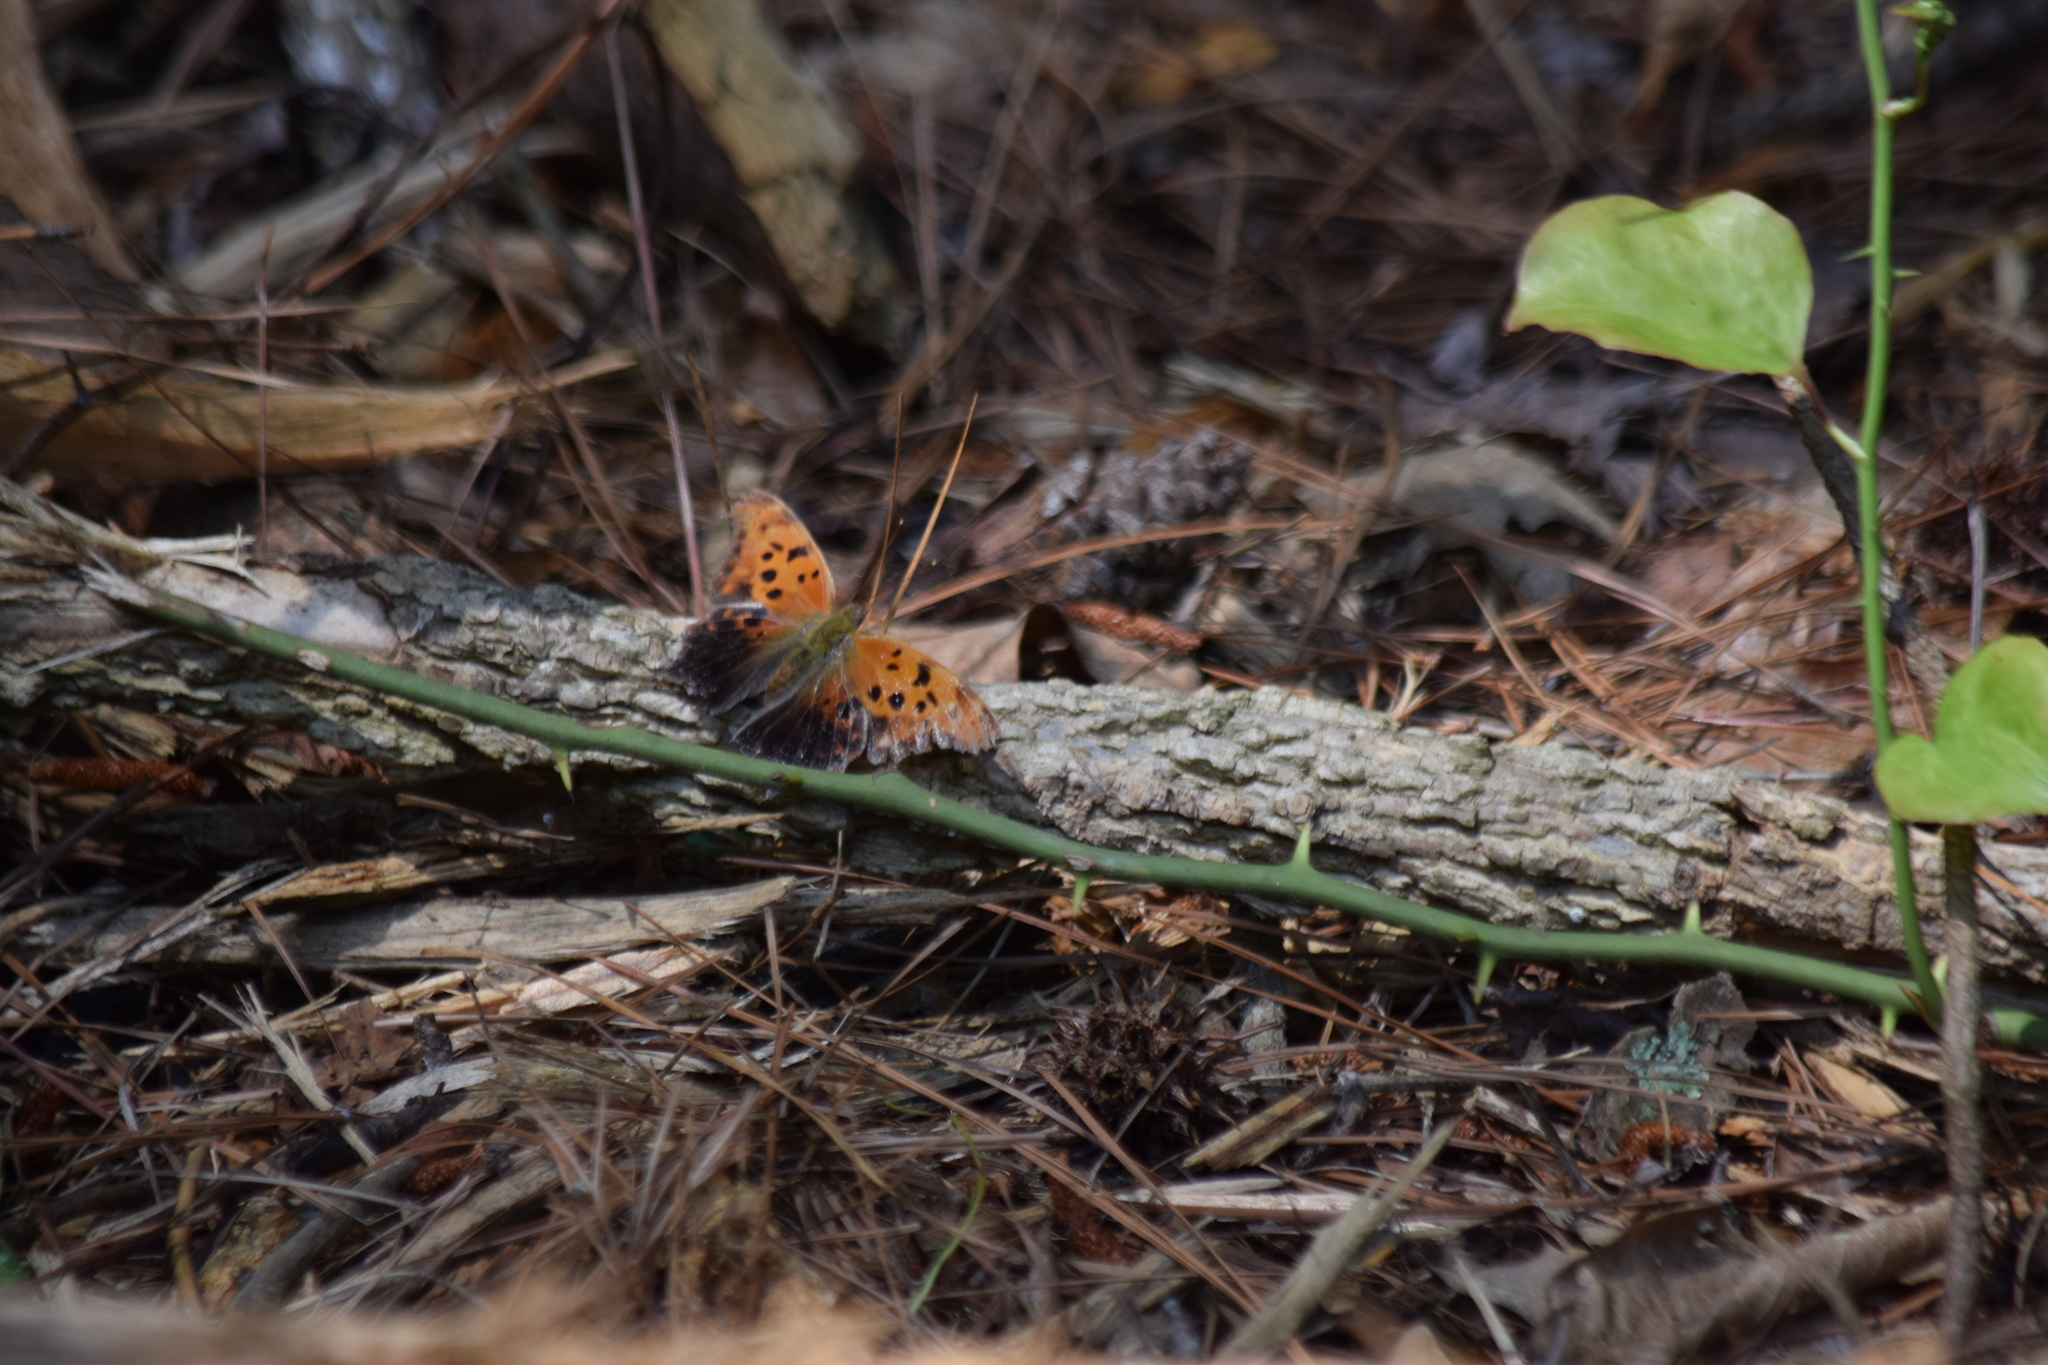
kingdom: Animalia
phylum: Arthropoda
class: Insecta
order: Lepidoptera
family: Nymphalidae
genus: Polygonia
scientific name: Polygonia interrogationis
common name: Question mark
